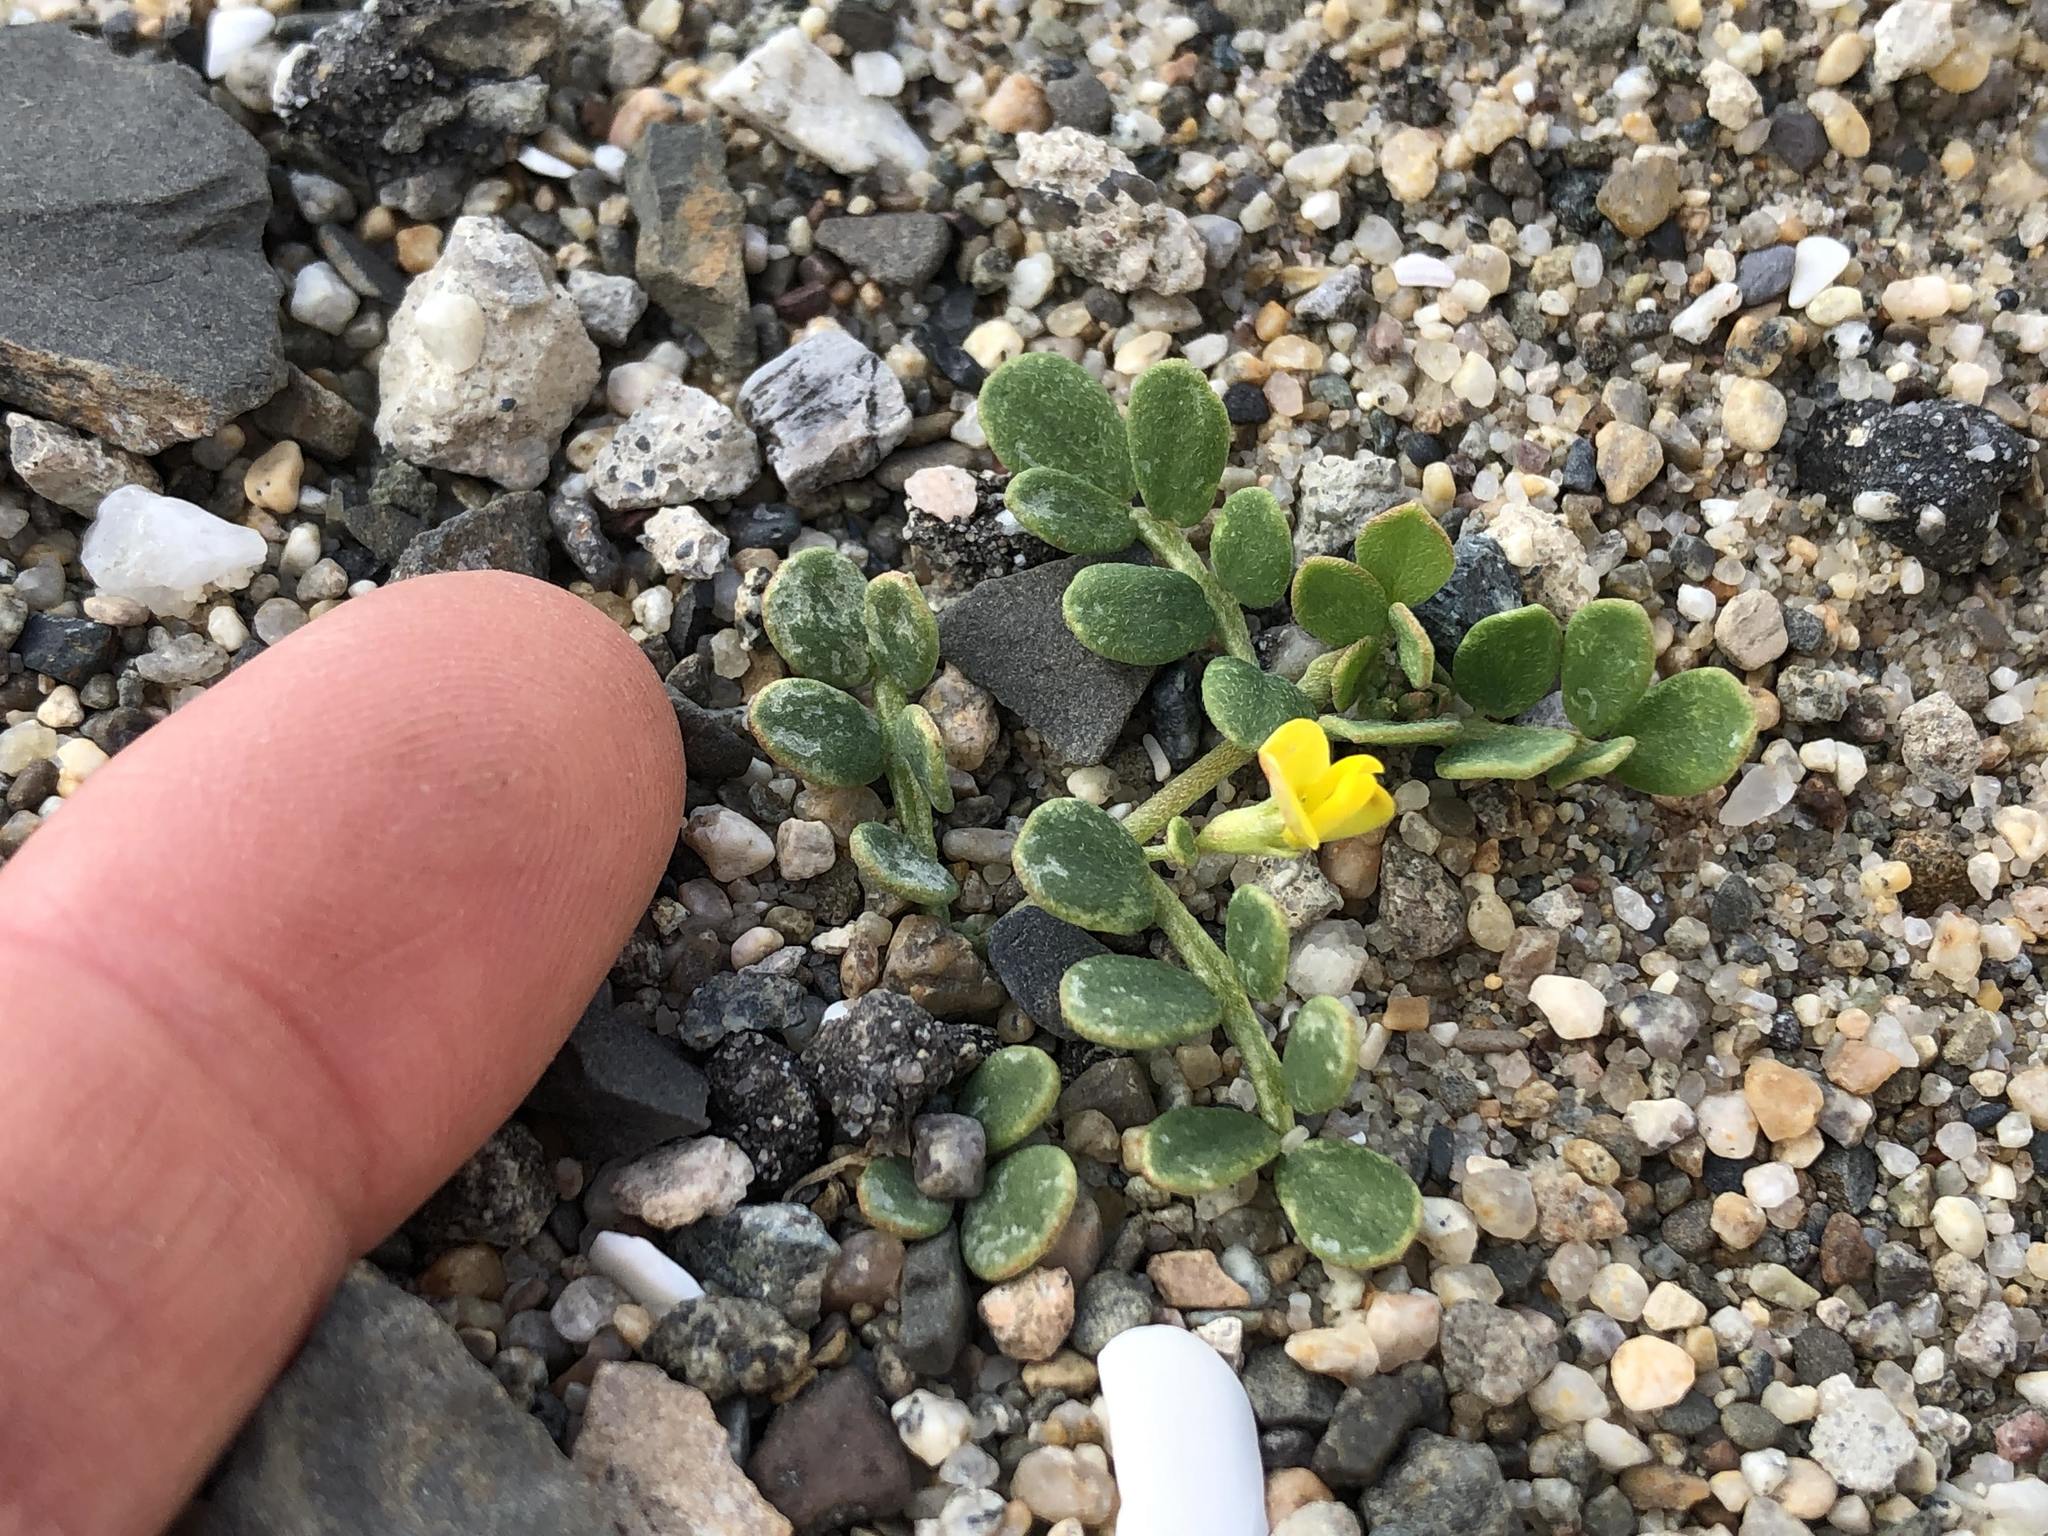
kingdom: Plantae
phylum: Tracheophyta
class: Magnoliopsida
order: Fabales
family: Fabaceae
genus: Acmispon
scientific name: Acmispon maritimus
